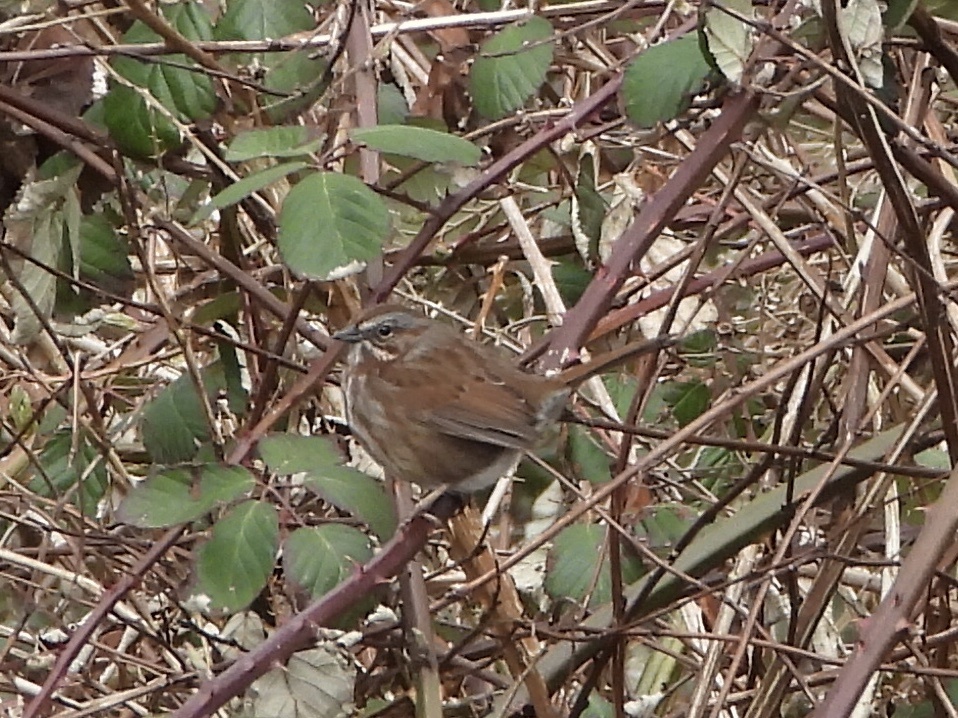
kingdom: Animalia
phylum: Chordata
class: Aves
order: Passeriformes
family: Passerellidae
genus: Melospiza
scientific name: Melospiza melodia
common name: Song sparrow
